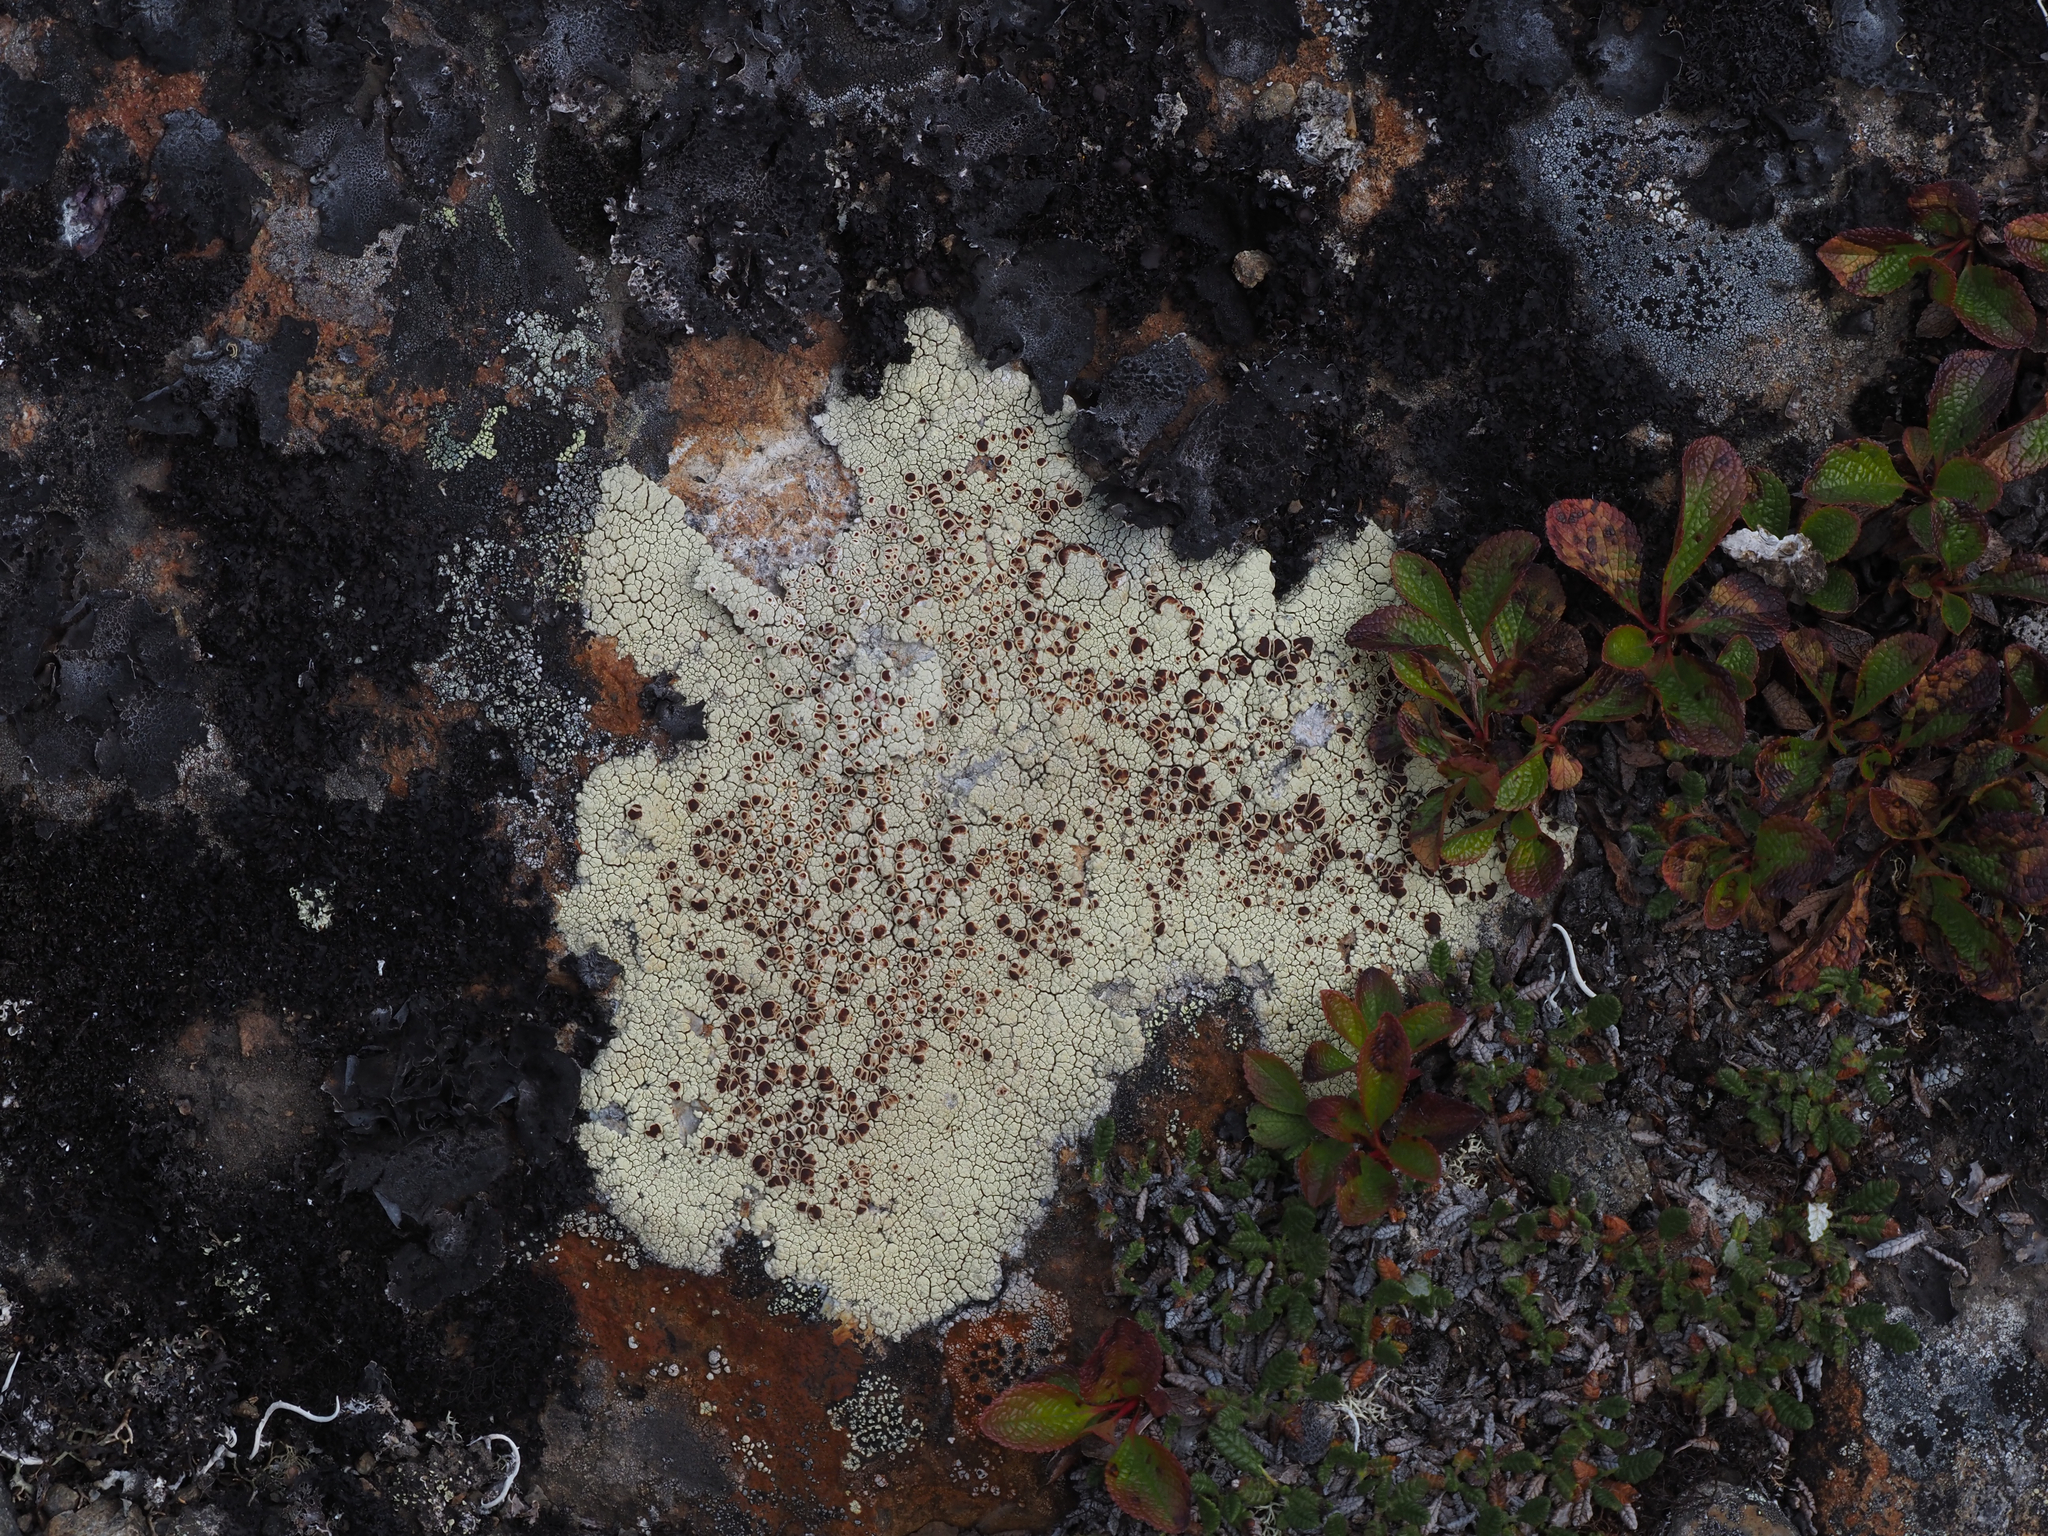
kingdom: Fungi
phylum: Ascomycota
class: Lecanoromycetes
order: Umbilicariales
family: Ophioparmaceae
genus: Ophioparma
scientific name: Ophioparma ventosa
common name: Blood-spot
